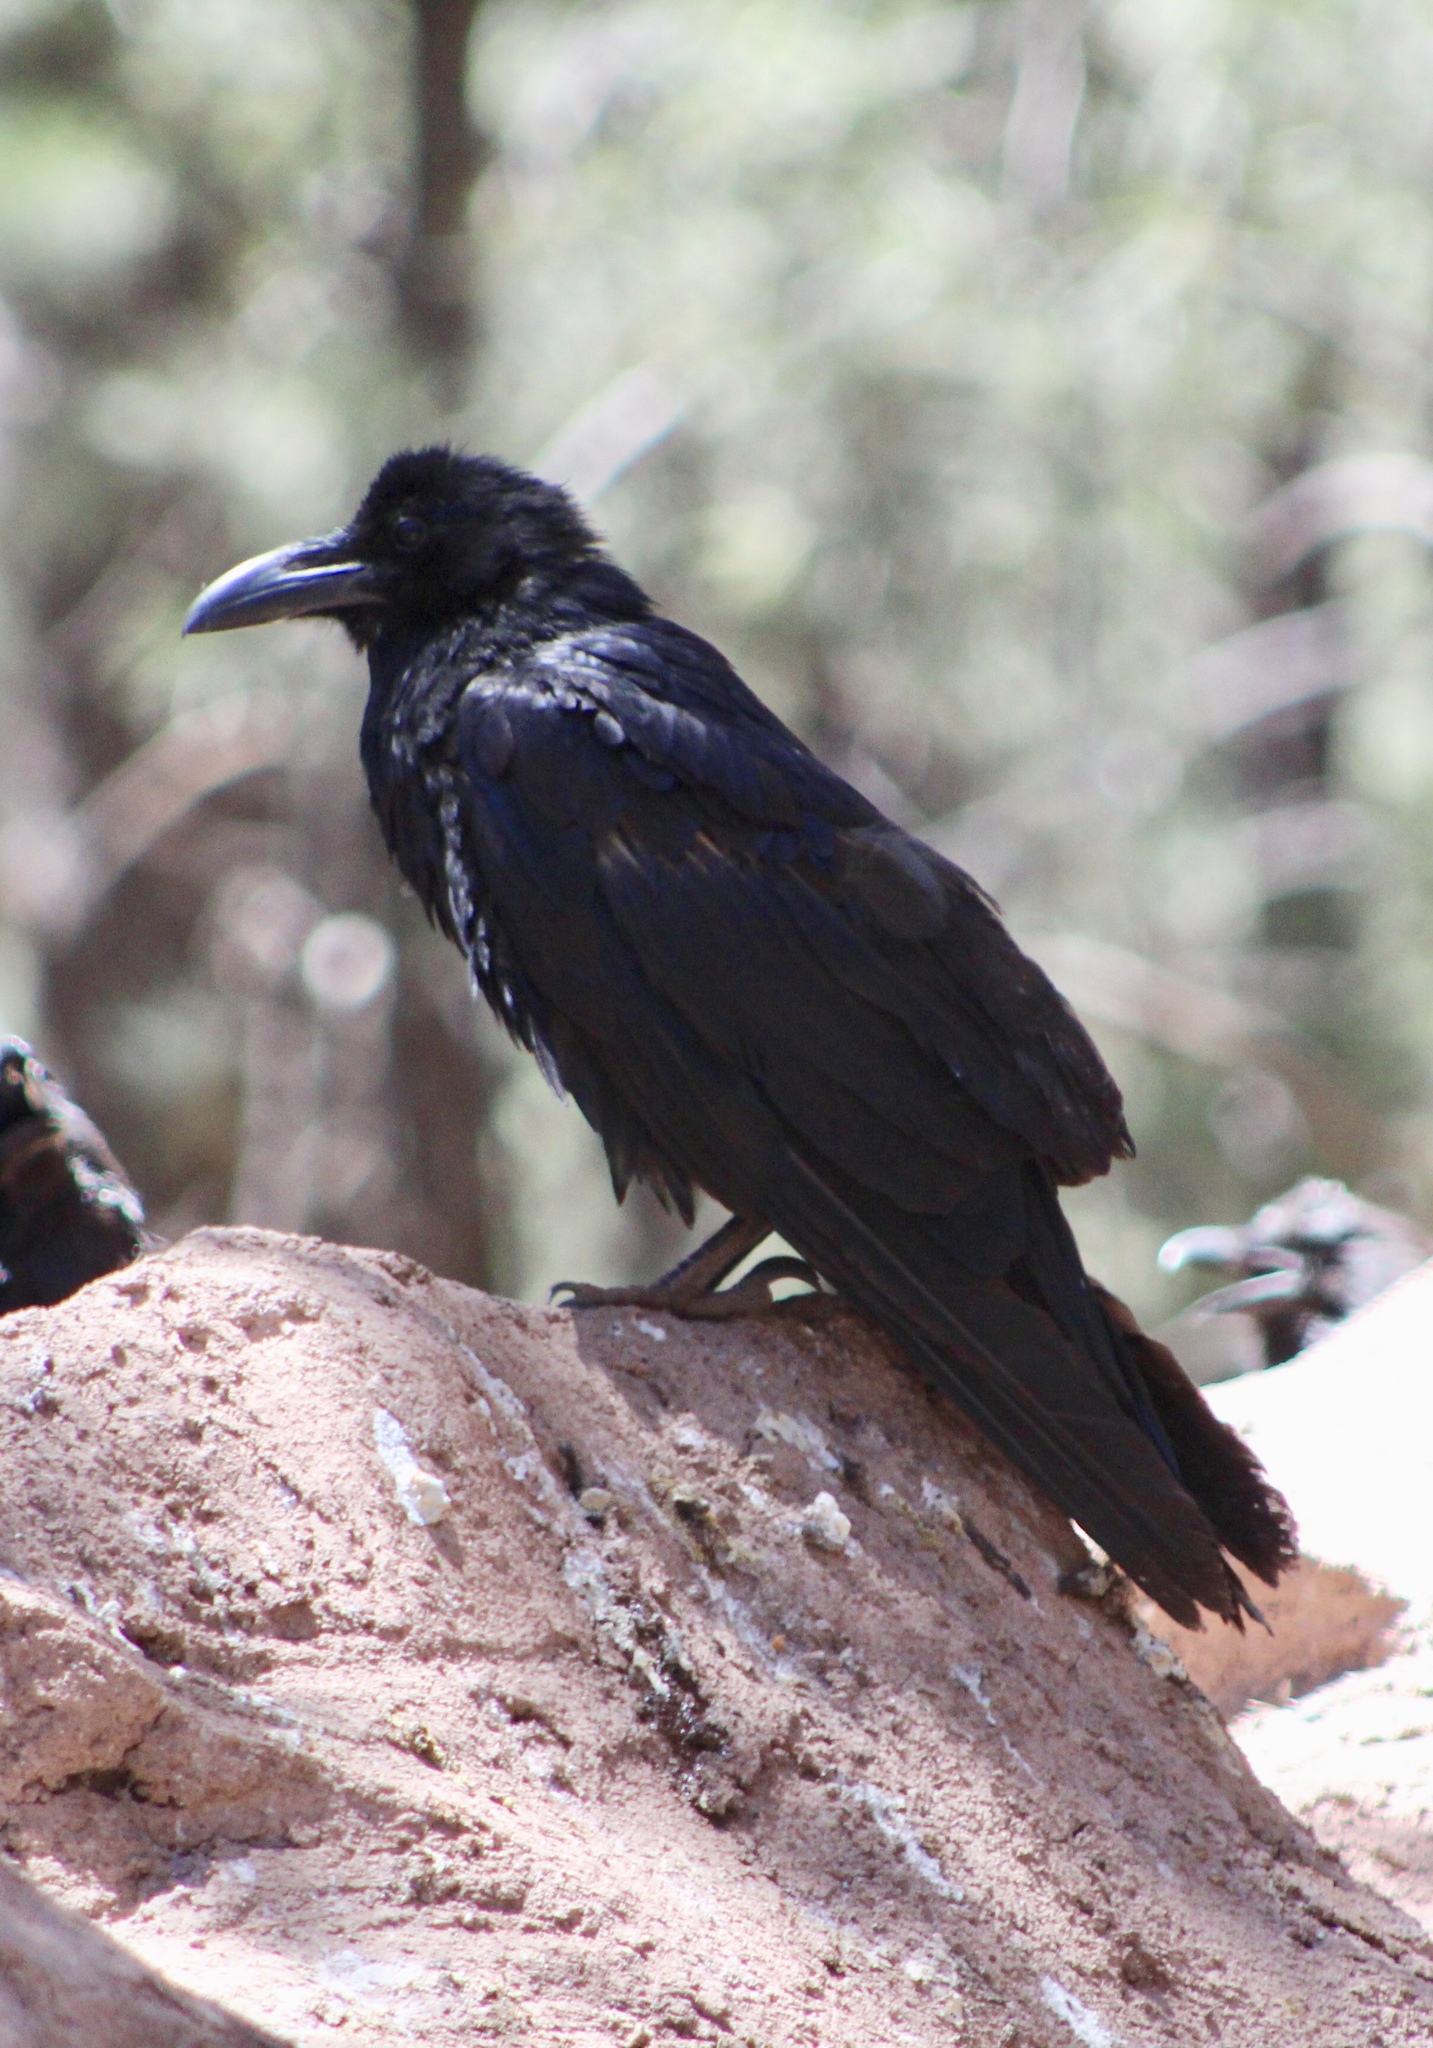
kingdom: Animalia
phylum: Chordata
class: Aves
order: Passeriformes
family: Corvidae
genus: Corvus
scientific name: Corvus corax
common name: Common raven
